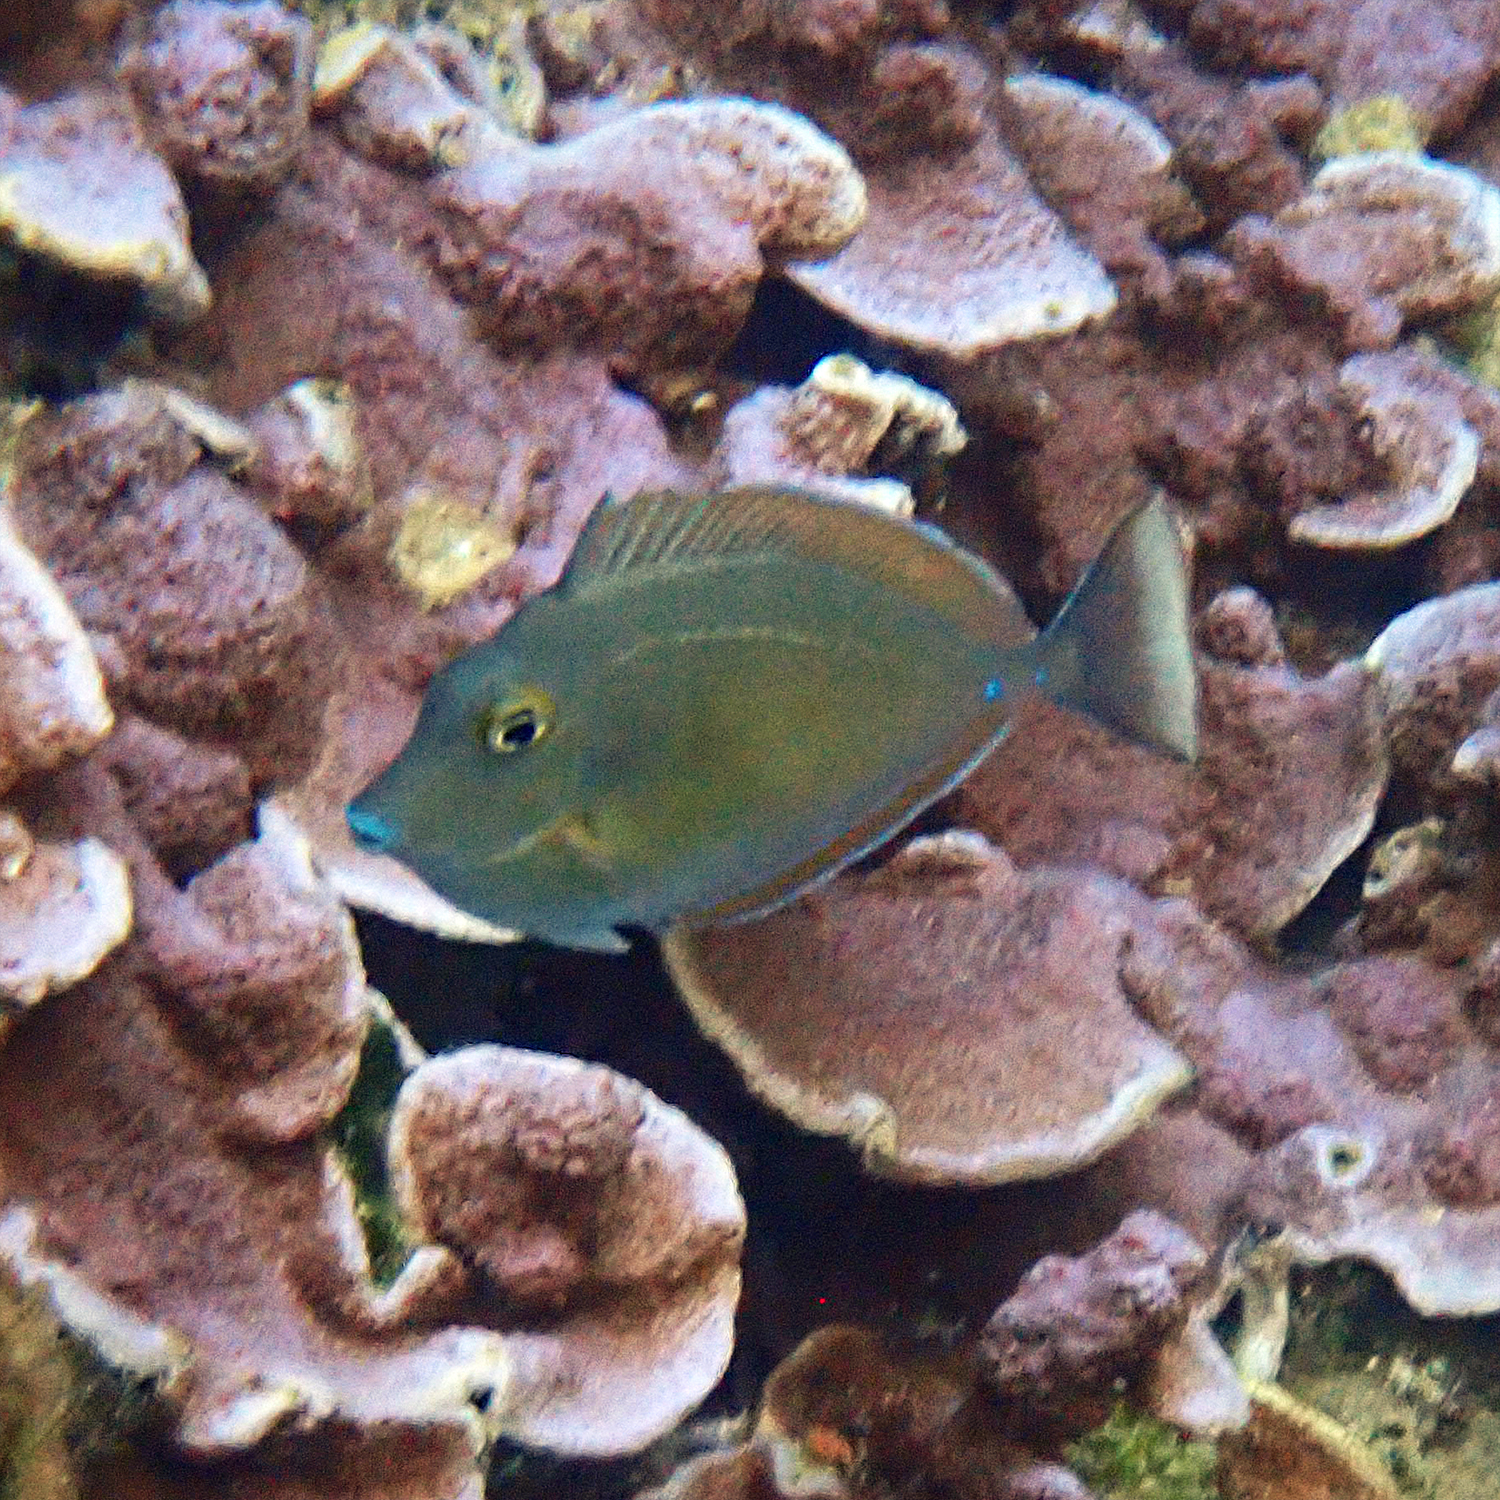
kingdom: Animalia
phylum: Chordata
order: Perciformes
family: Acanthuridae
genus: Naso
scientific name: Naso unicornis
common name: Bluespine unicornfish
